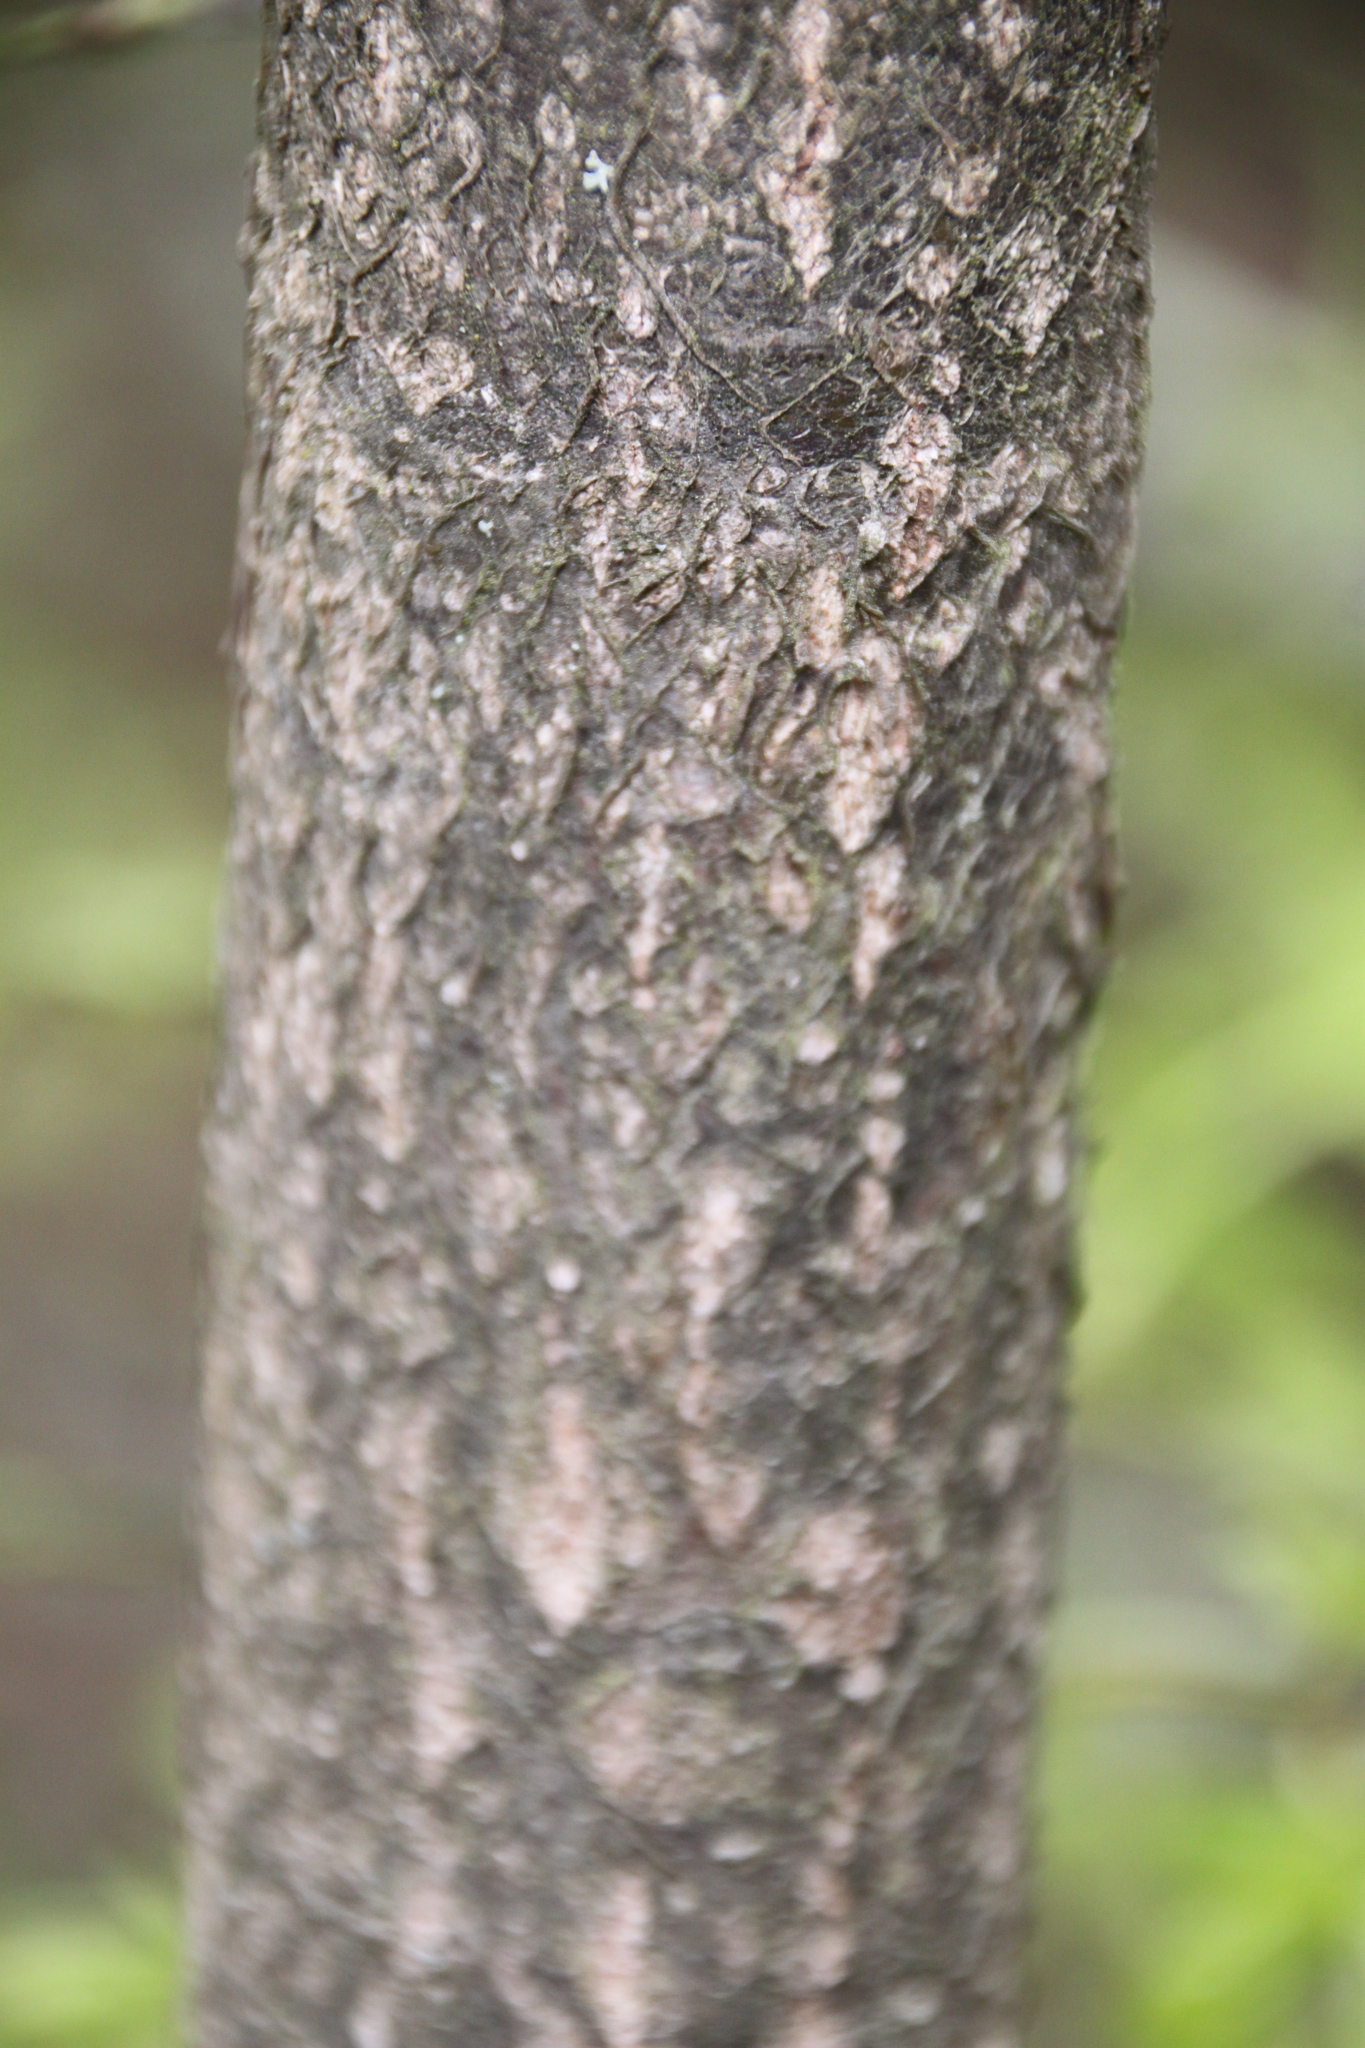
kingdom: Plantae
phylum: Tracheophyta
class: Magnoliopsida
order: Fagales
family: Fagaceae
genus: Quercus
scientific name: Quercus robur
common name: Pedunculate oak
